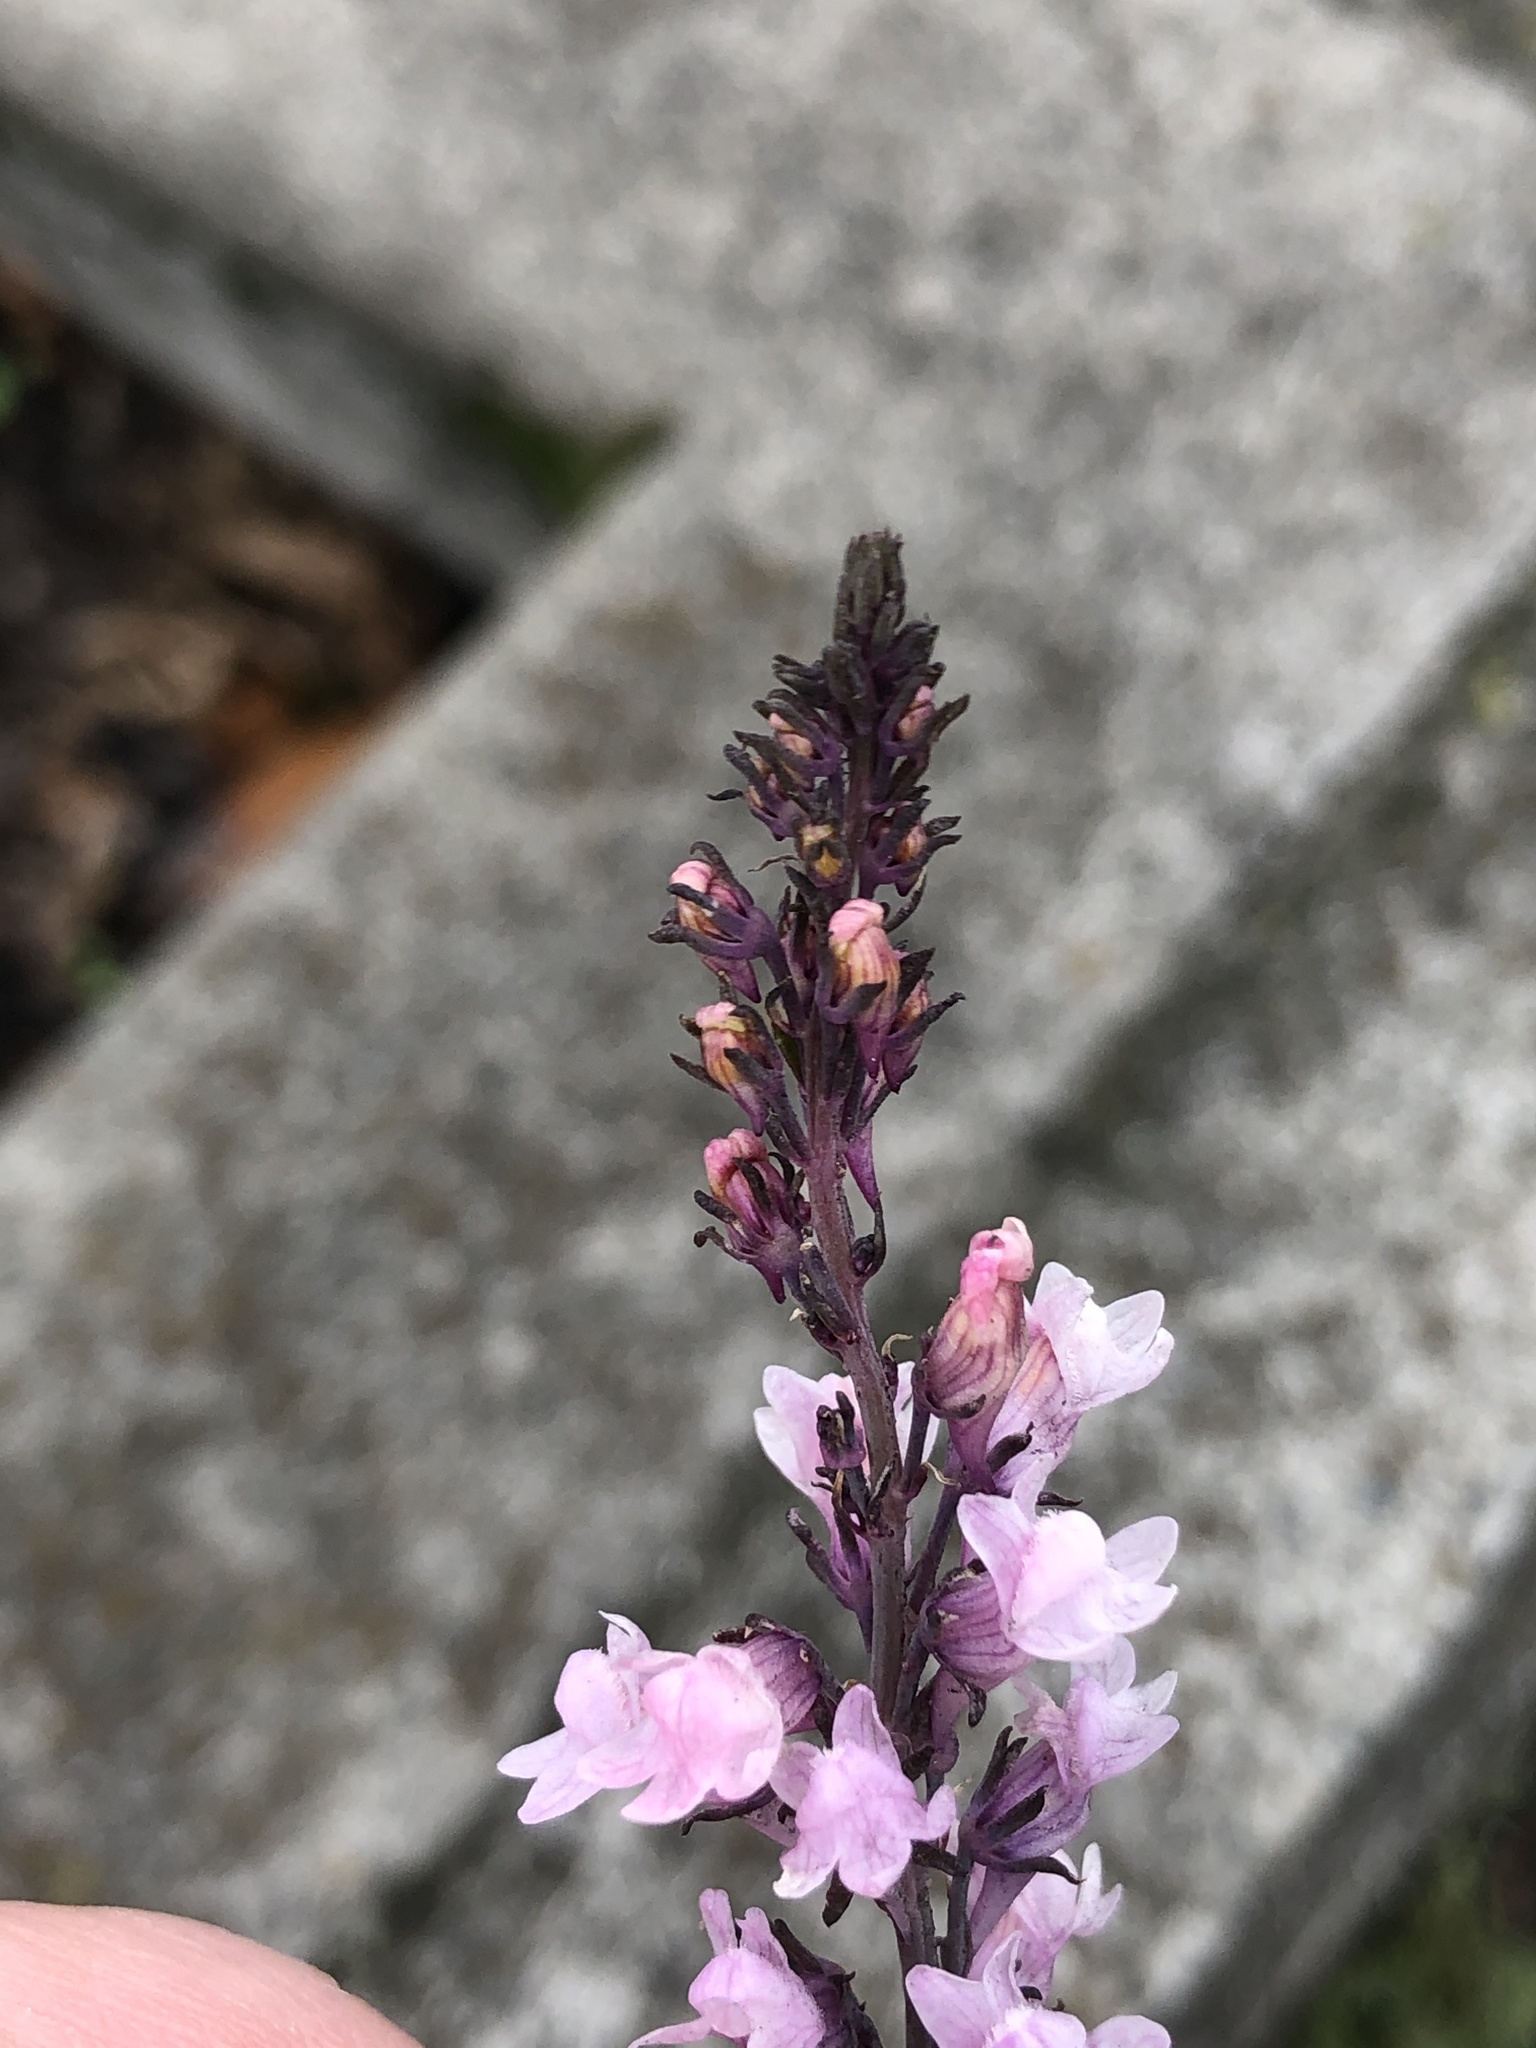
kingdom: Plantae
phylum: Tracheophyta
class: Magnoliopsida
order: Lamiales
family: Plantaginaceae
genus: Linaria
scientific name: Linaria purpurea
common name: Purple toadflax
